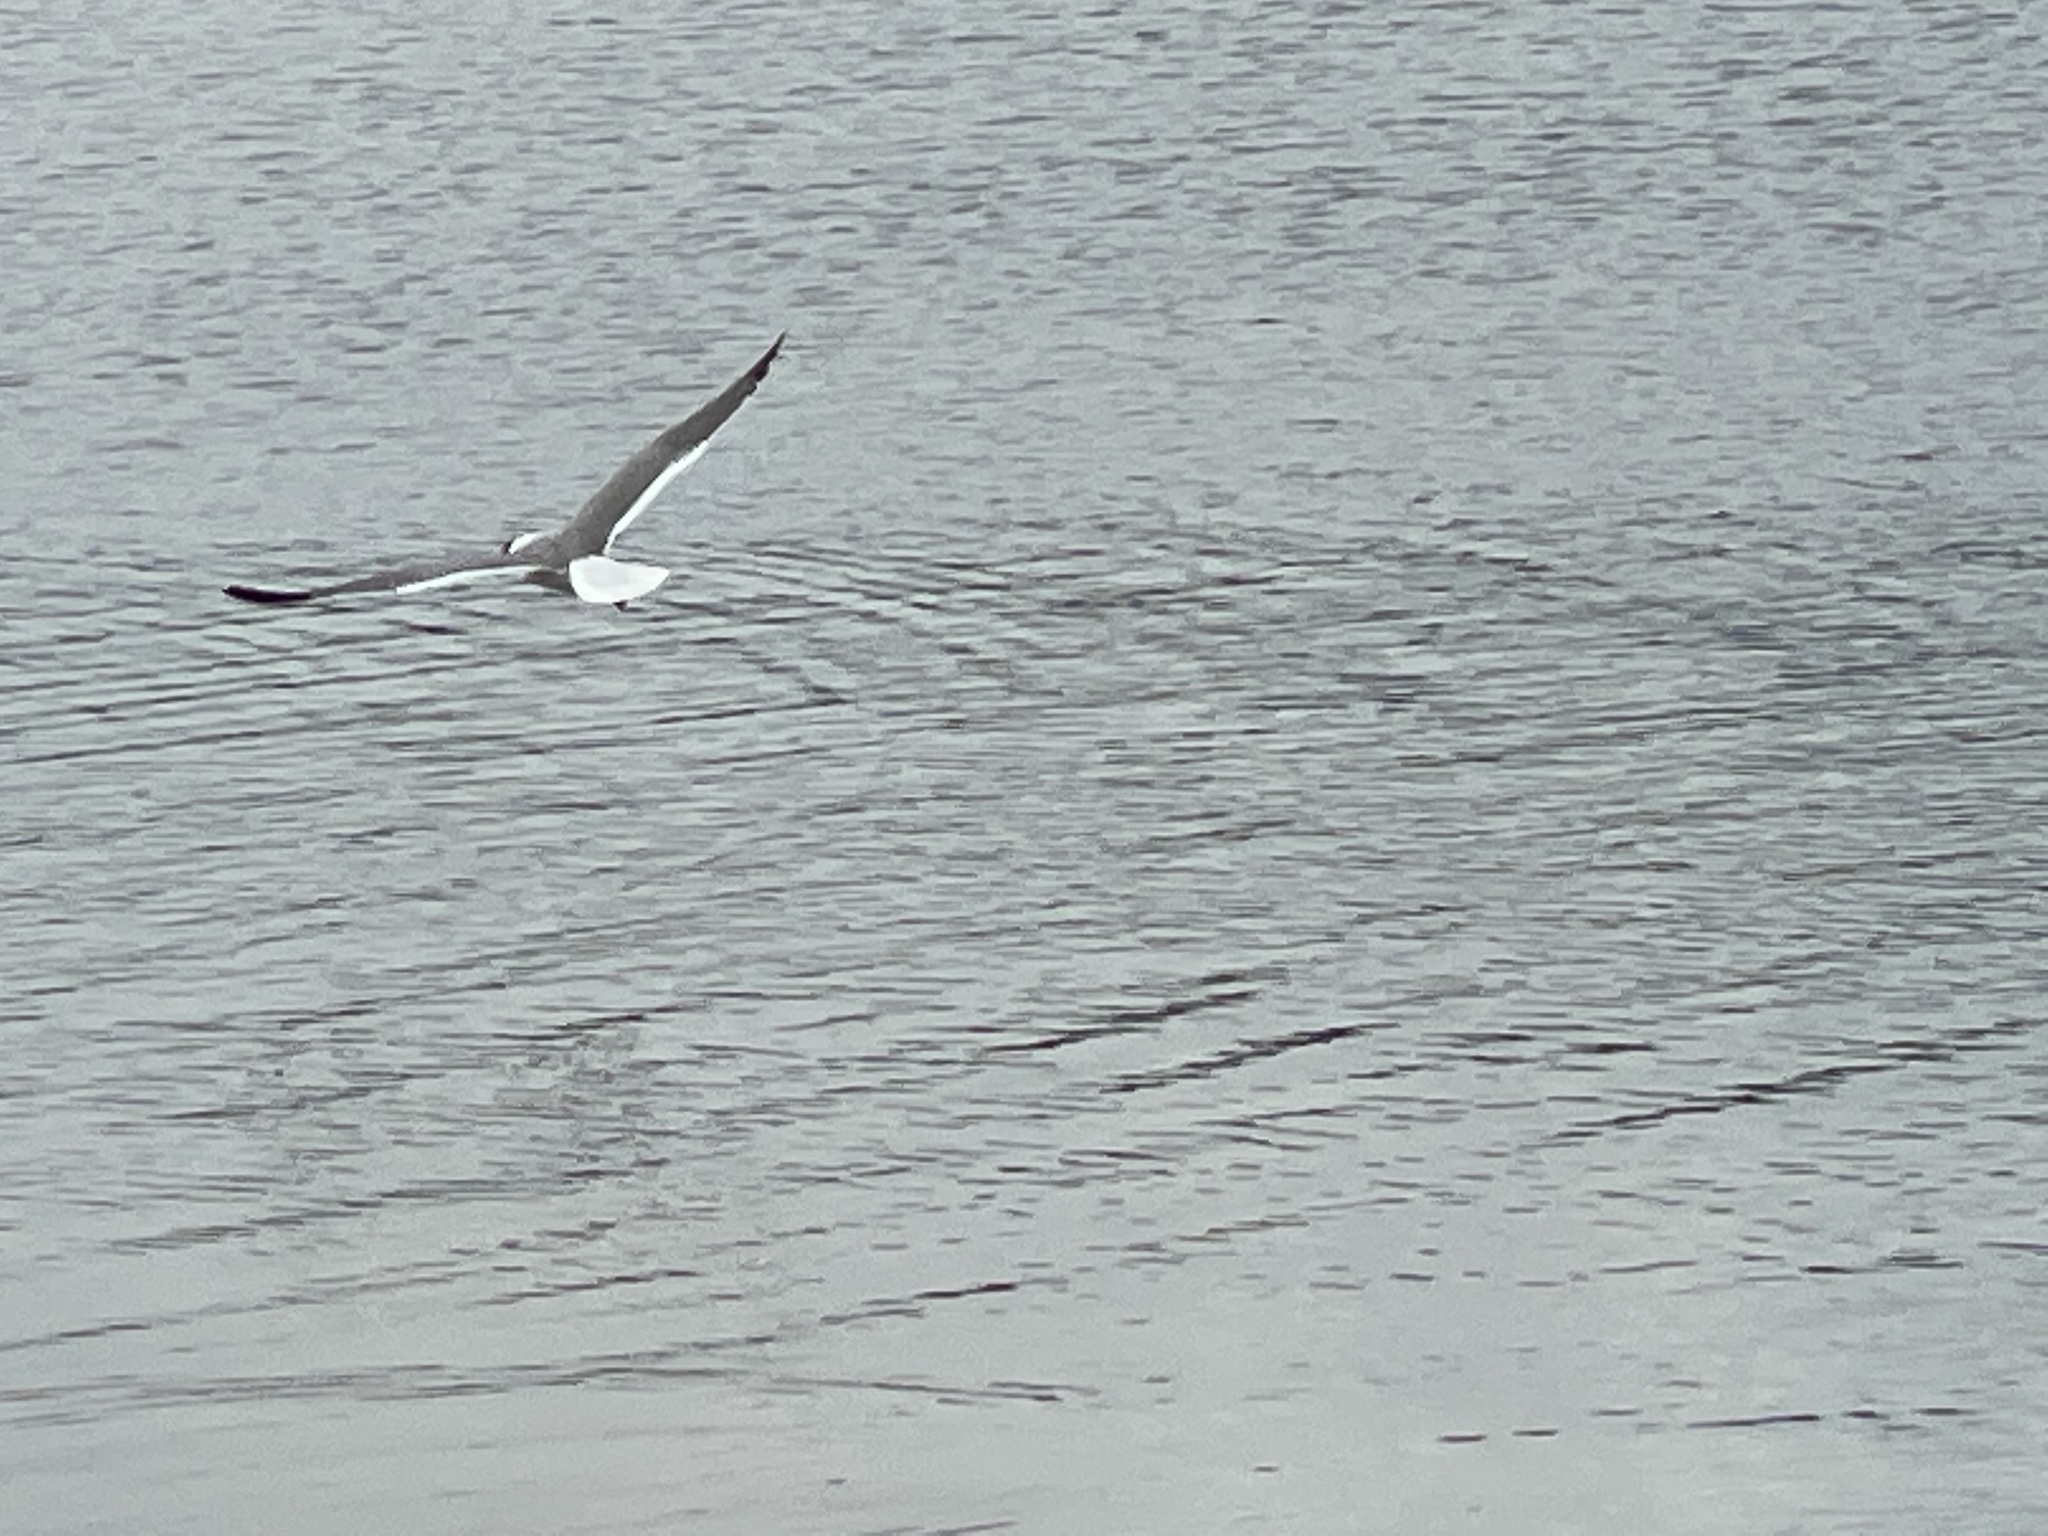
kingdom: Animalia
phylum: Chordata
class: Aves
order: Charadriiformes
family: Laridae
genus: Leucophaeus
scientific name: Leucophaeus atricilla
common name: Laughing gull
